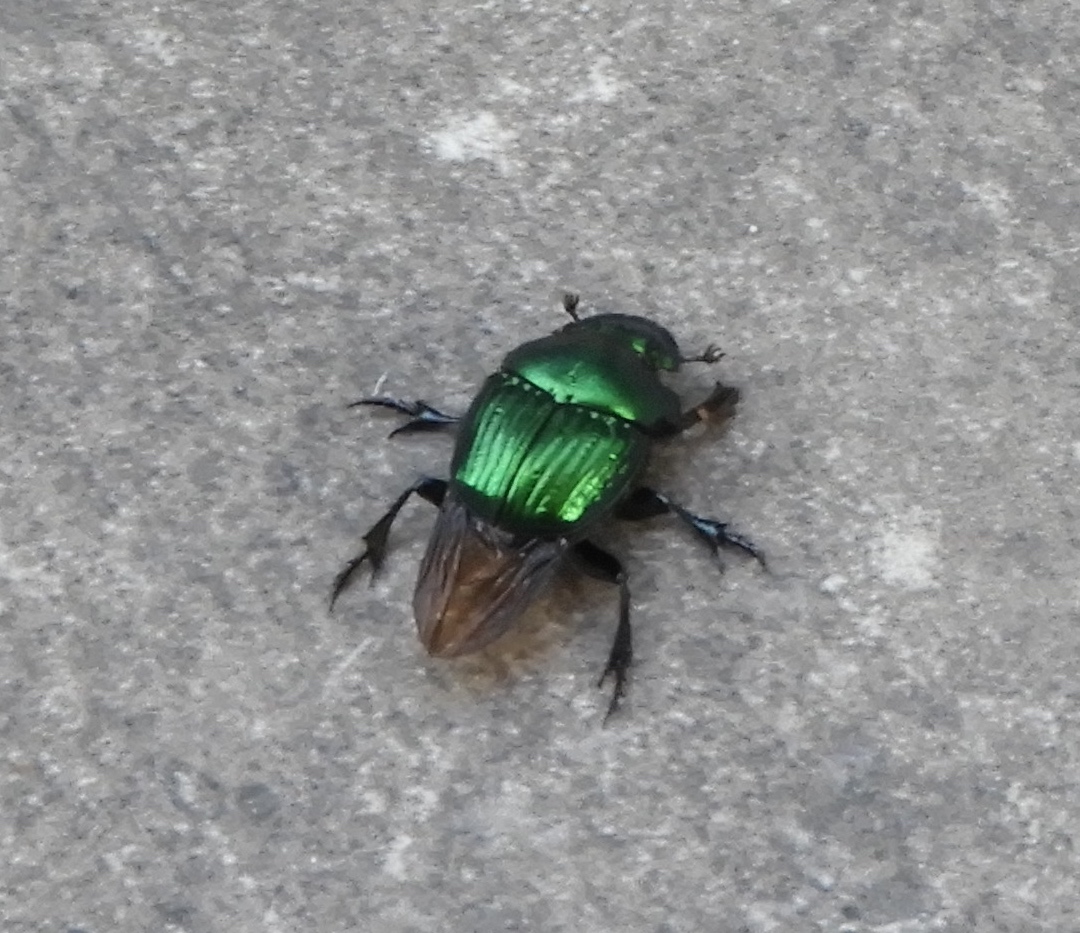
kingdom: Animalia
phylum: Arthropoda
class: Insecta
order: Coleoptera
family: Scarabaeidae
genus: Phanaeus
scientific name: Phanaeus furiosus
